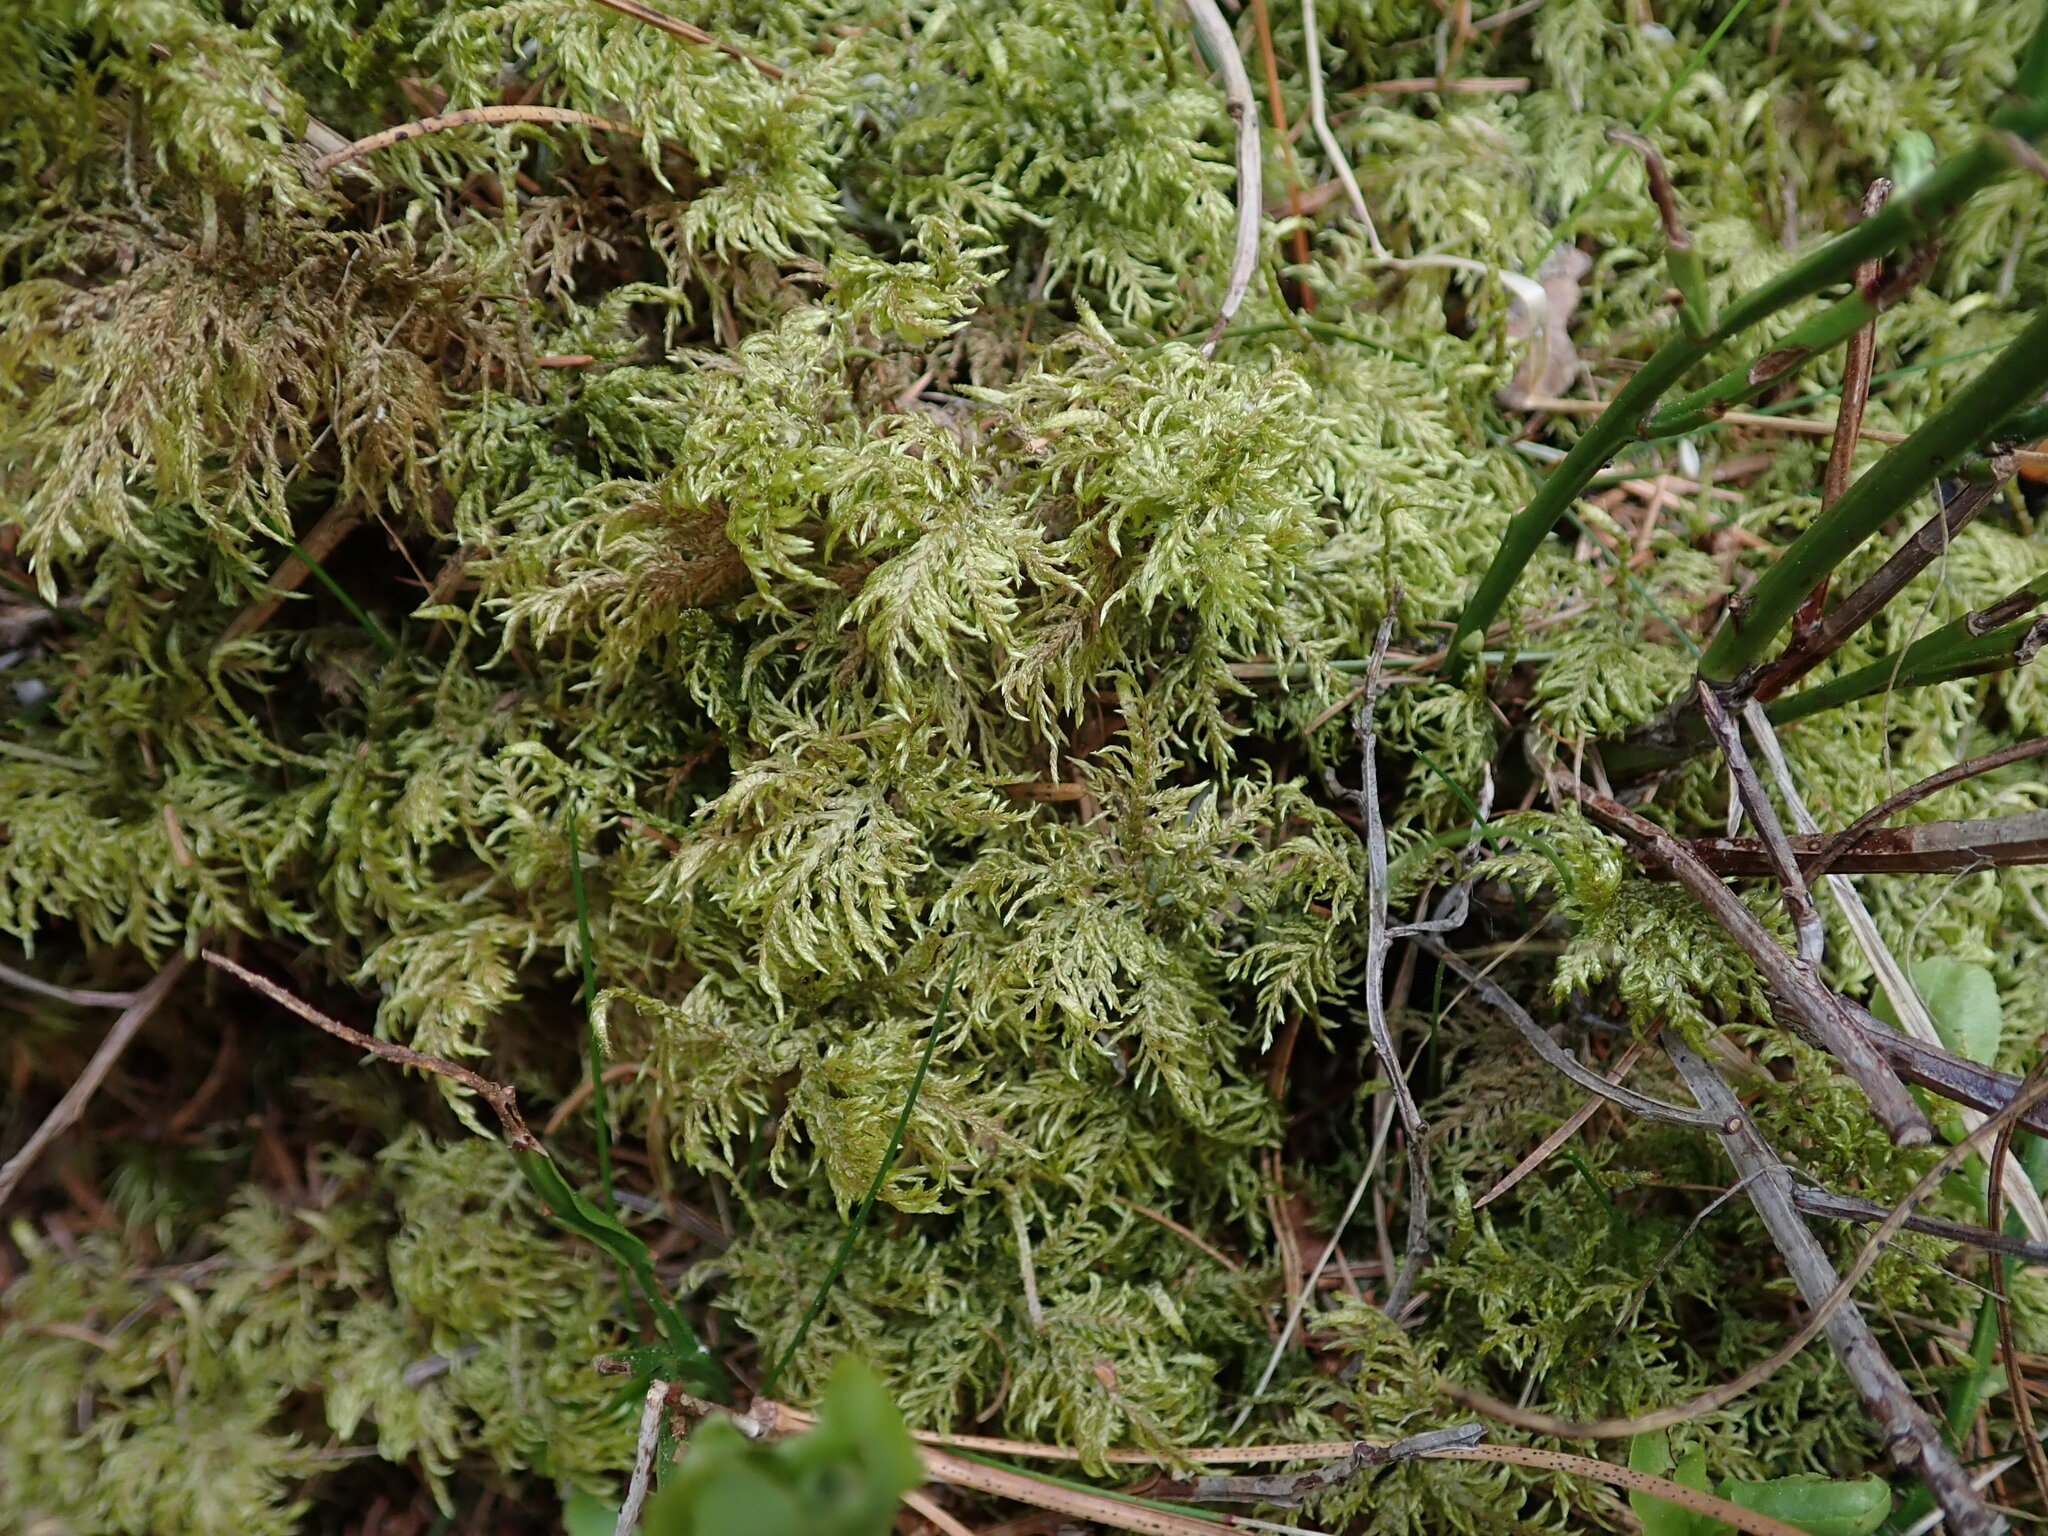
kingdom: Plantae
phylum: Bryophyta
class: Bryopsida
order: Hypnales
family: Hylocomiaceae
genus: Hylocomium
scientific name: Hylocomium splendens
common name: Stairstep moss
